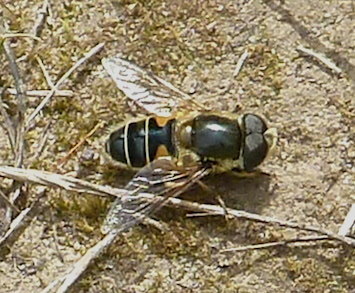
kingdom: Animalia
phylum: Arthropoda
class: Insecta
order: Diptera
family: Syrphidae
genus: Eoseristalis
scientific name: Eoseristalis
